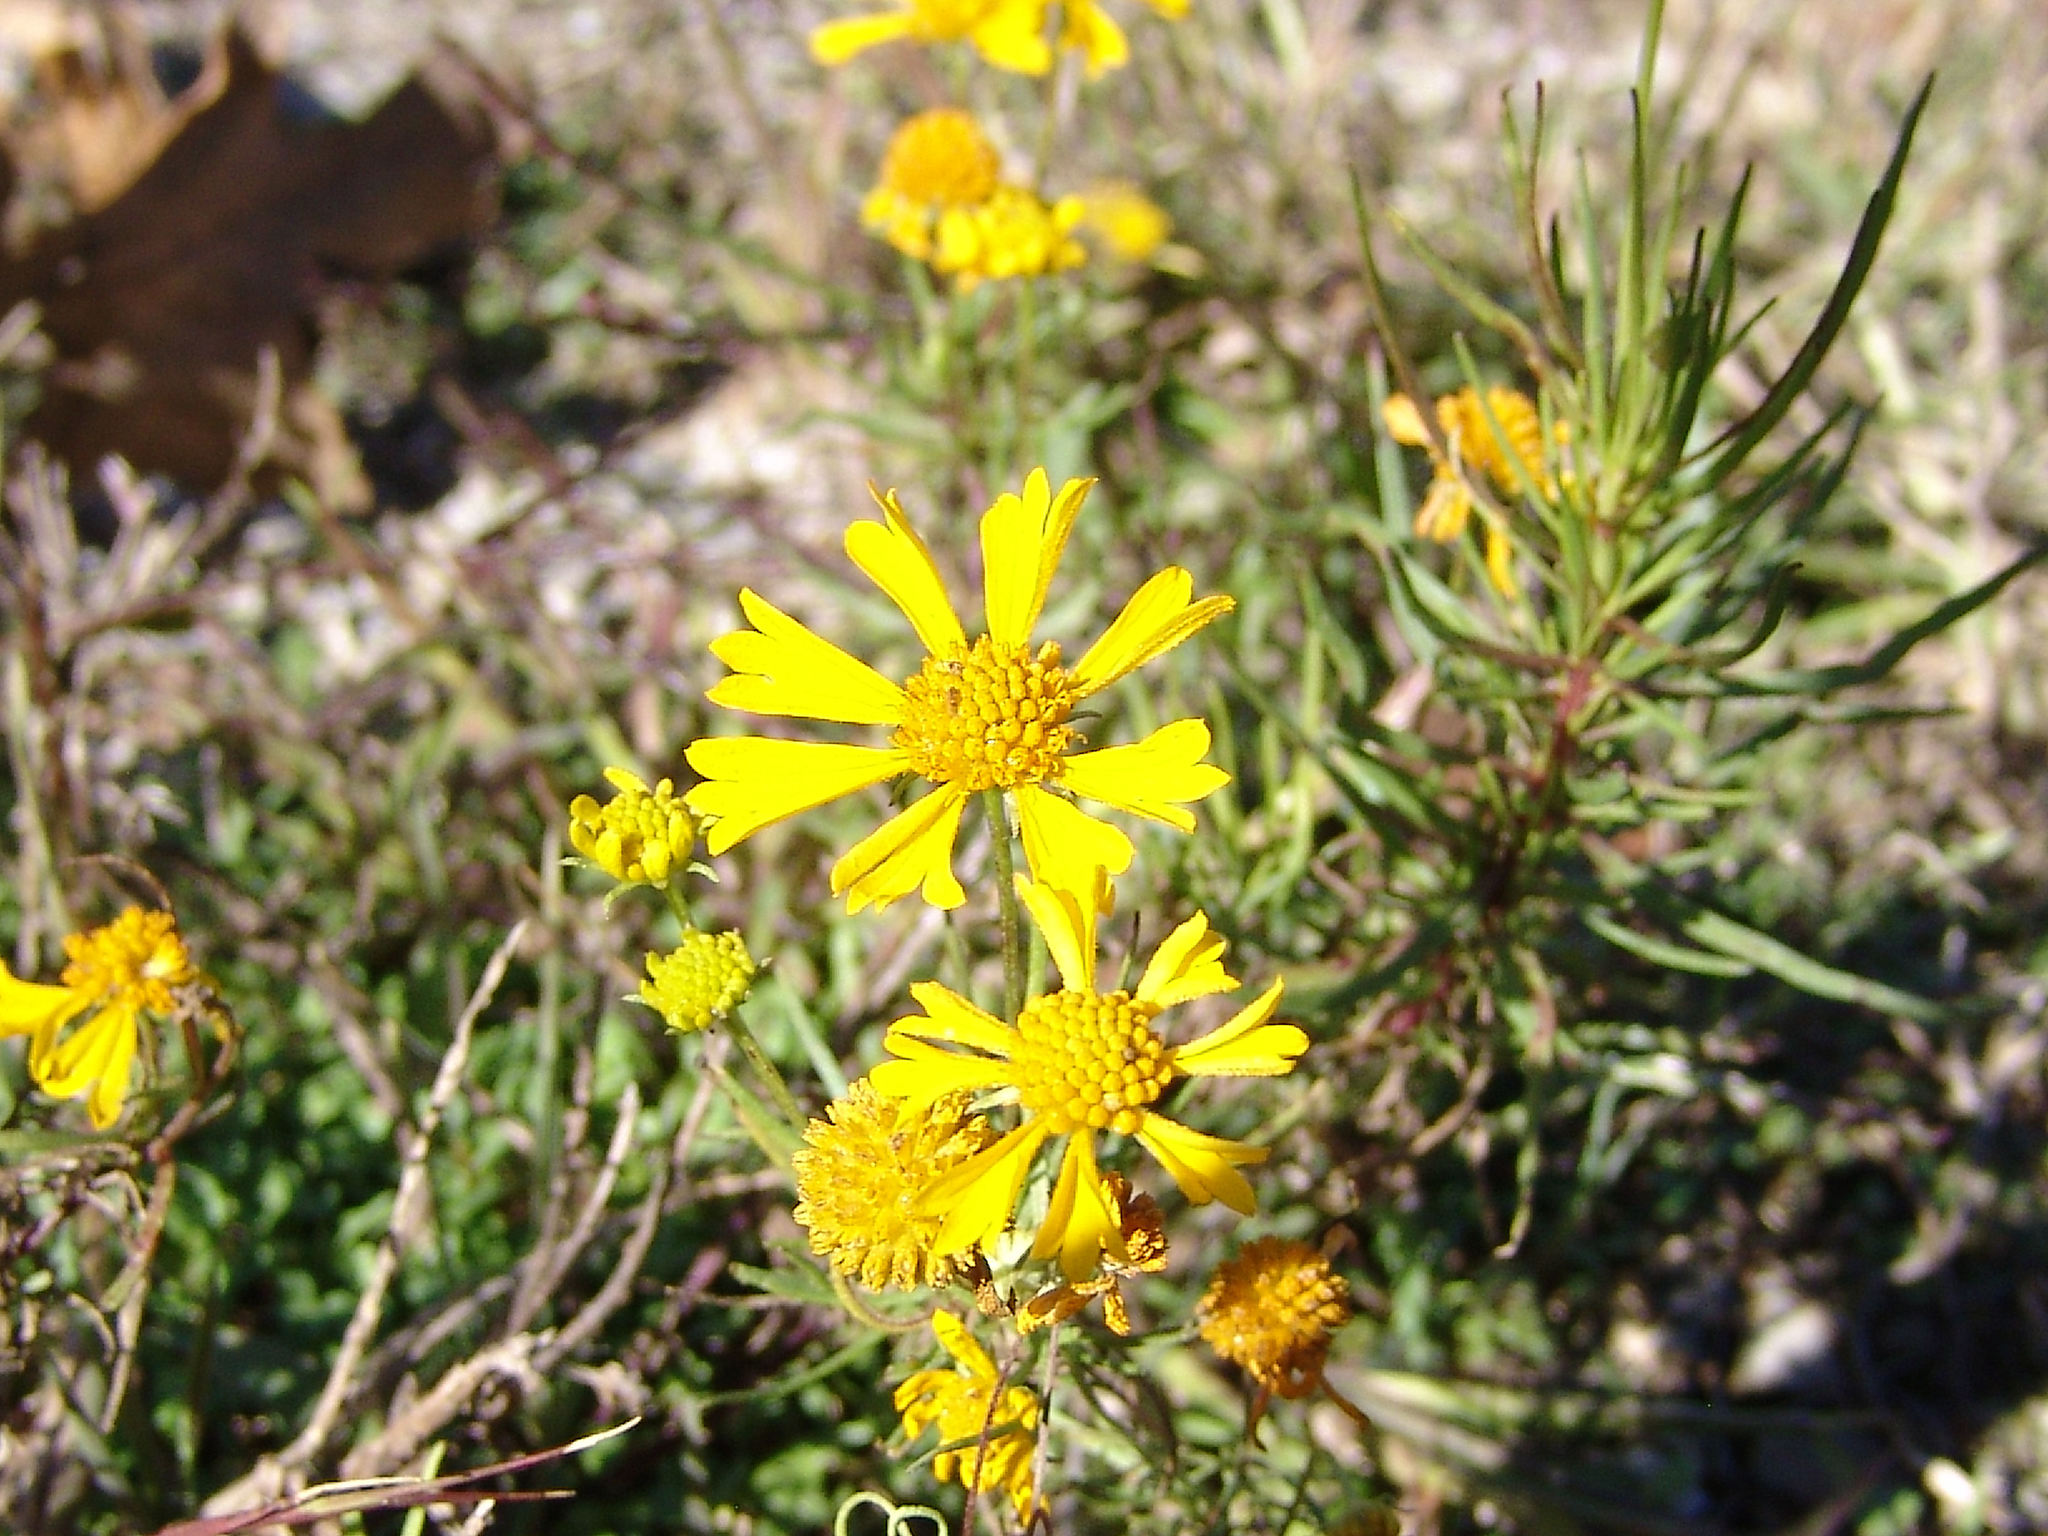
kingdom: Plantae
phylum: Tracheophyta
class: Magnoliopsida
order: Asterales
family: Asteraceae
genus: Helenium
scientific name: Helenium amarum
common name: Bitter sneezeweed
